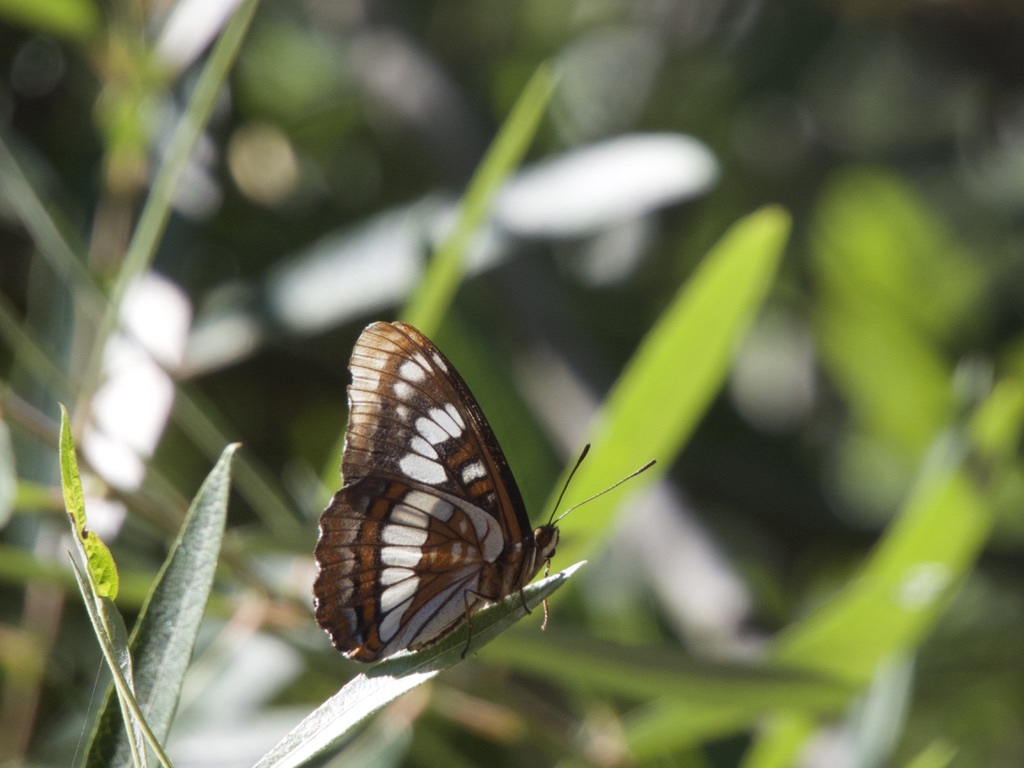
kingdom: Animalia
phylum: Arthropoda
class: Insecta
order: Lepidoptera
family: Nymphalidae
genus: Limenitis
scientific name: Limenitis lorquini
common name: Lorquin's admiral
